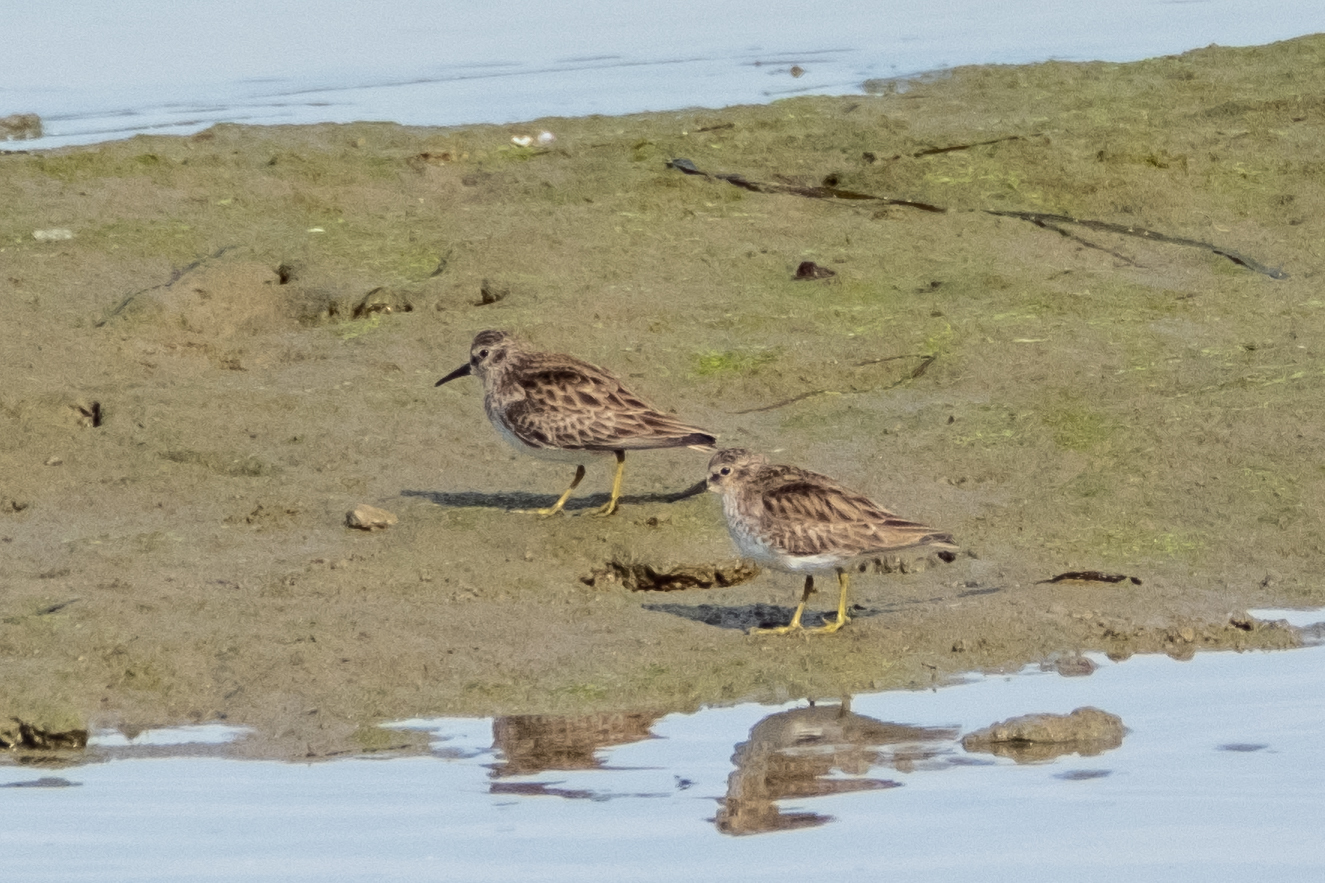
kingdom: Animalia
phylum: Chordata
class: Aves
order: Charadriiformes
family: Scolopacidae
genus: Calidris
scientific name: Calidris minutilla
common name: Least sandpiper
